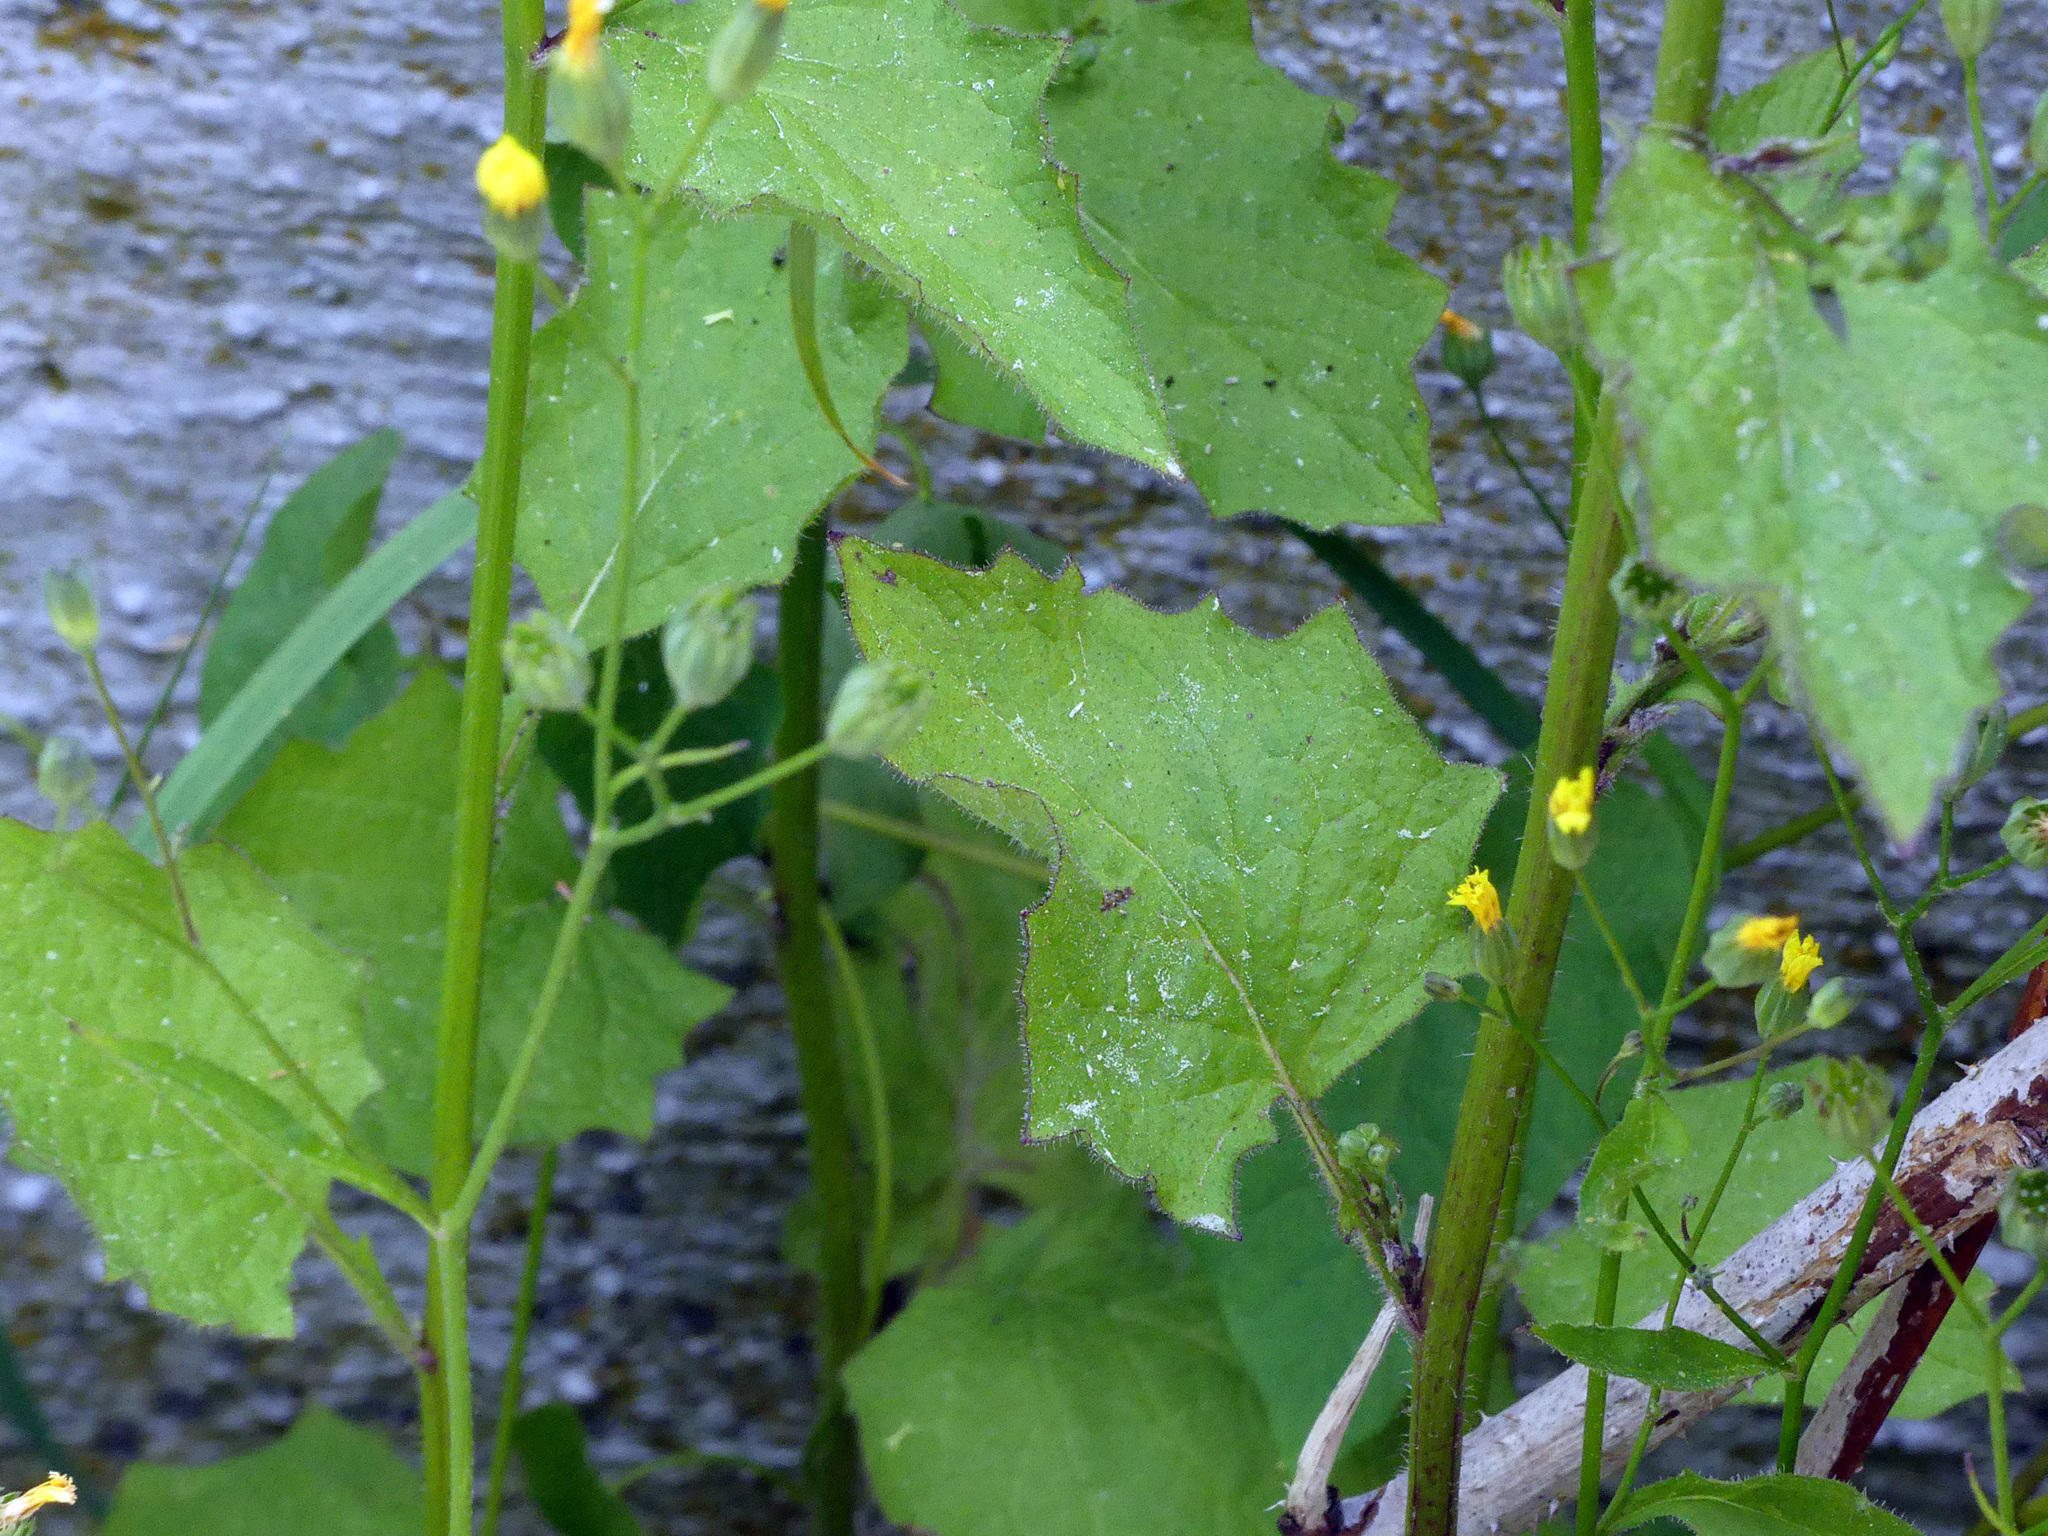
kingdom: Plantae
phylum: Tracheophyta
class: Magnoliopsida
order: Asterales
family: Asteraceae
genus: Lapsana
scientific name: Lapsana communis
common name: Nipplewort
